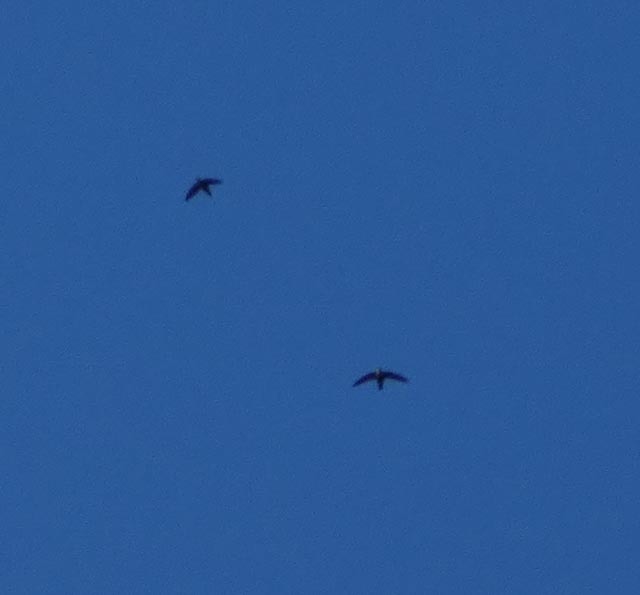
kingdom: Animalia
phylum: Chordata
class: Aves
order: Apodiformes
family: Apodidae
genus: Chaetura
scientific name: Chaetura pelagica
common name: Chimney swift
